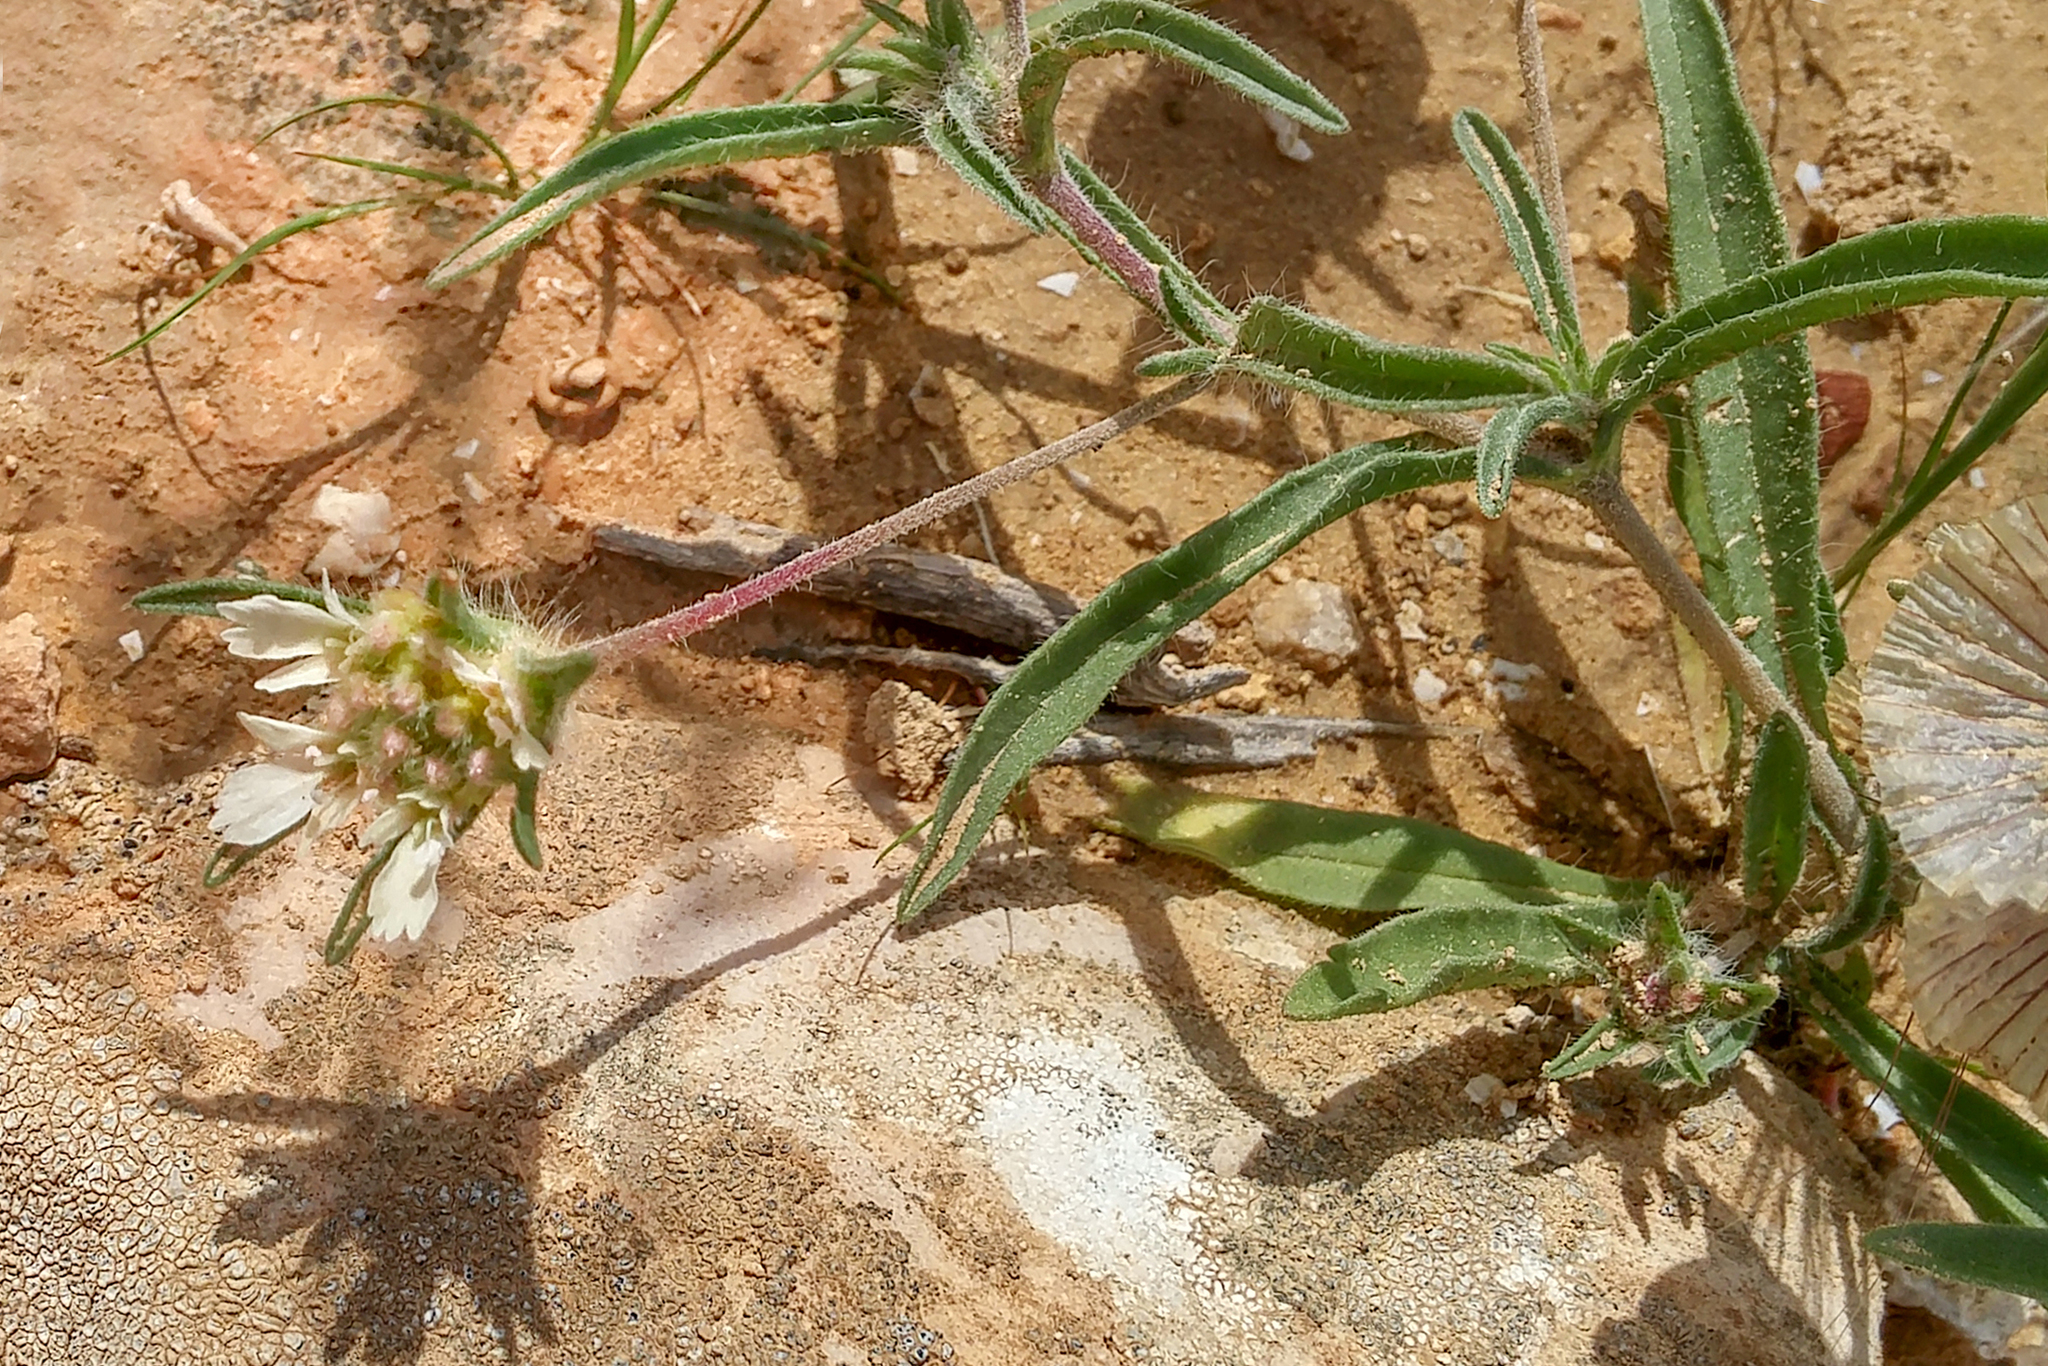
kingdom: Plantae
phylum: Tracheophyta
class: Magnoliopsida
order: Dipsacales
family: Caprifoliaceae
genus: Lomelosia
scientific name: Lomelosia porphyroneura
